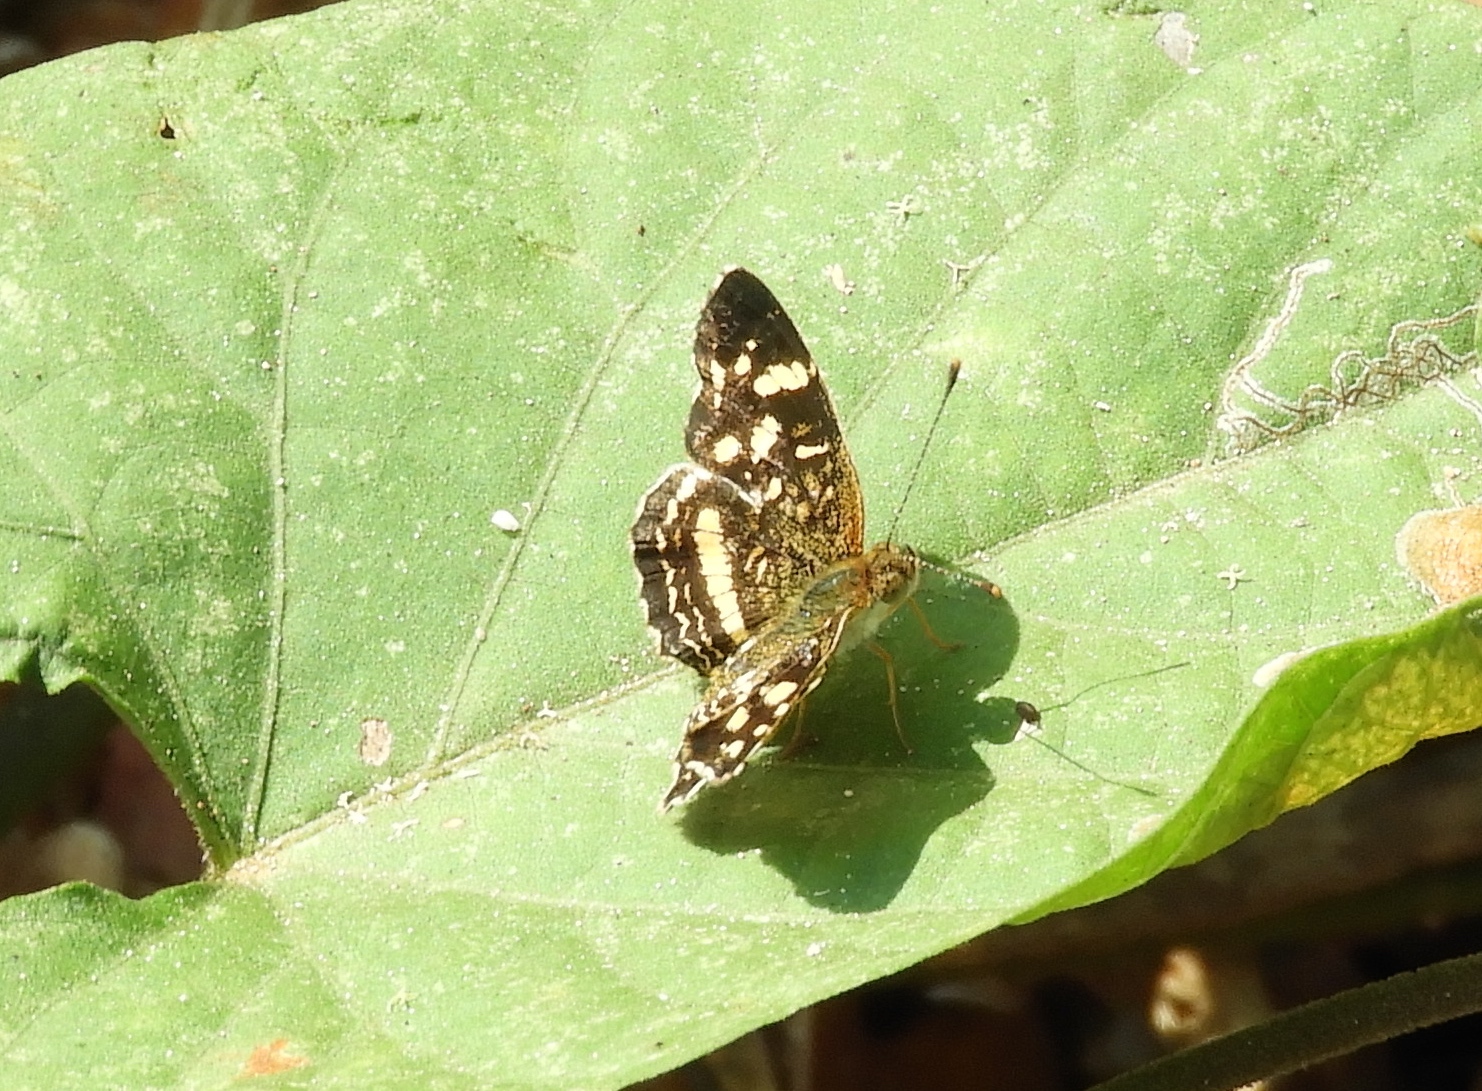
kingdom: Animalia
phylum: Arthropoda
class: Insecta
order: Lepidoptera
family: Nymphalidae
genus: Anthanassa
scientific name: Anthanassa
